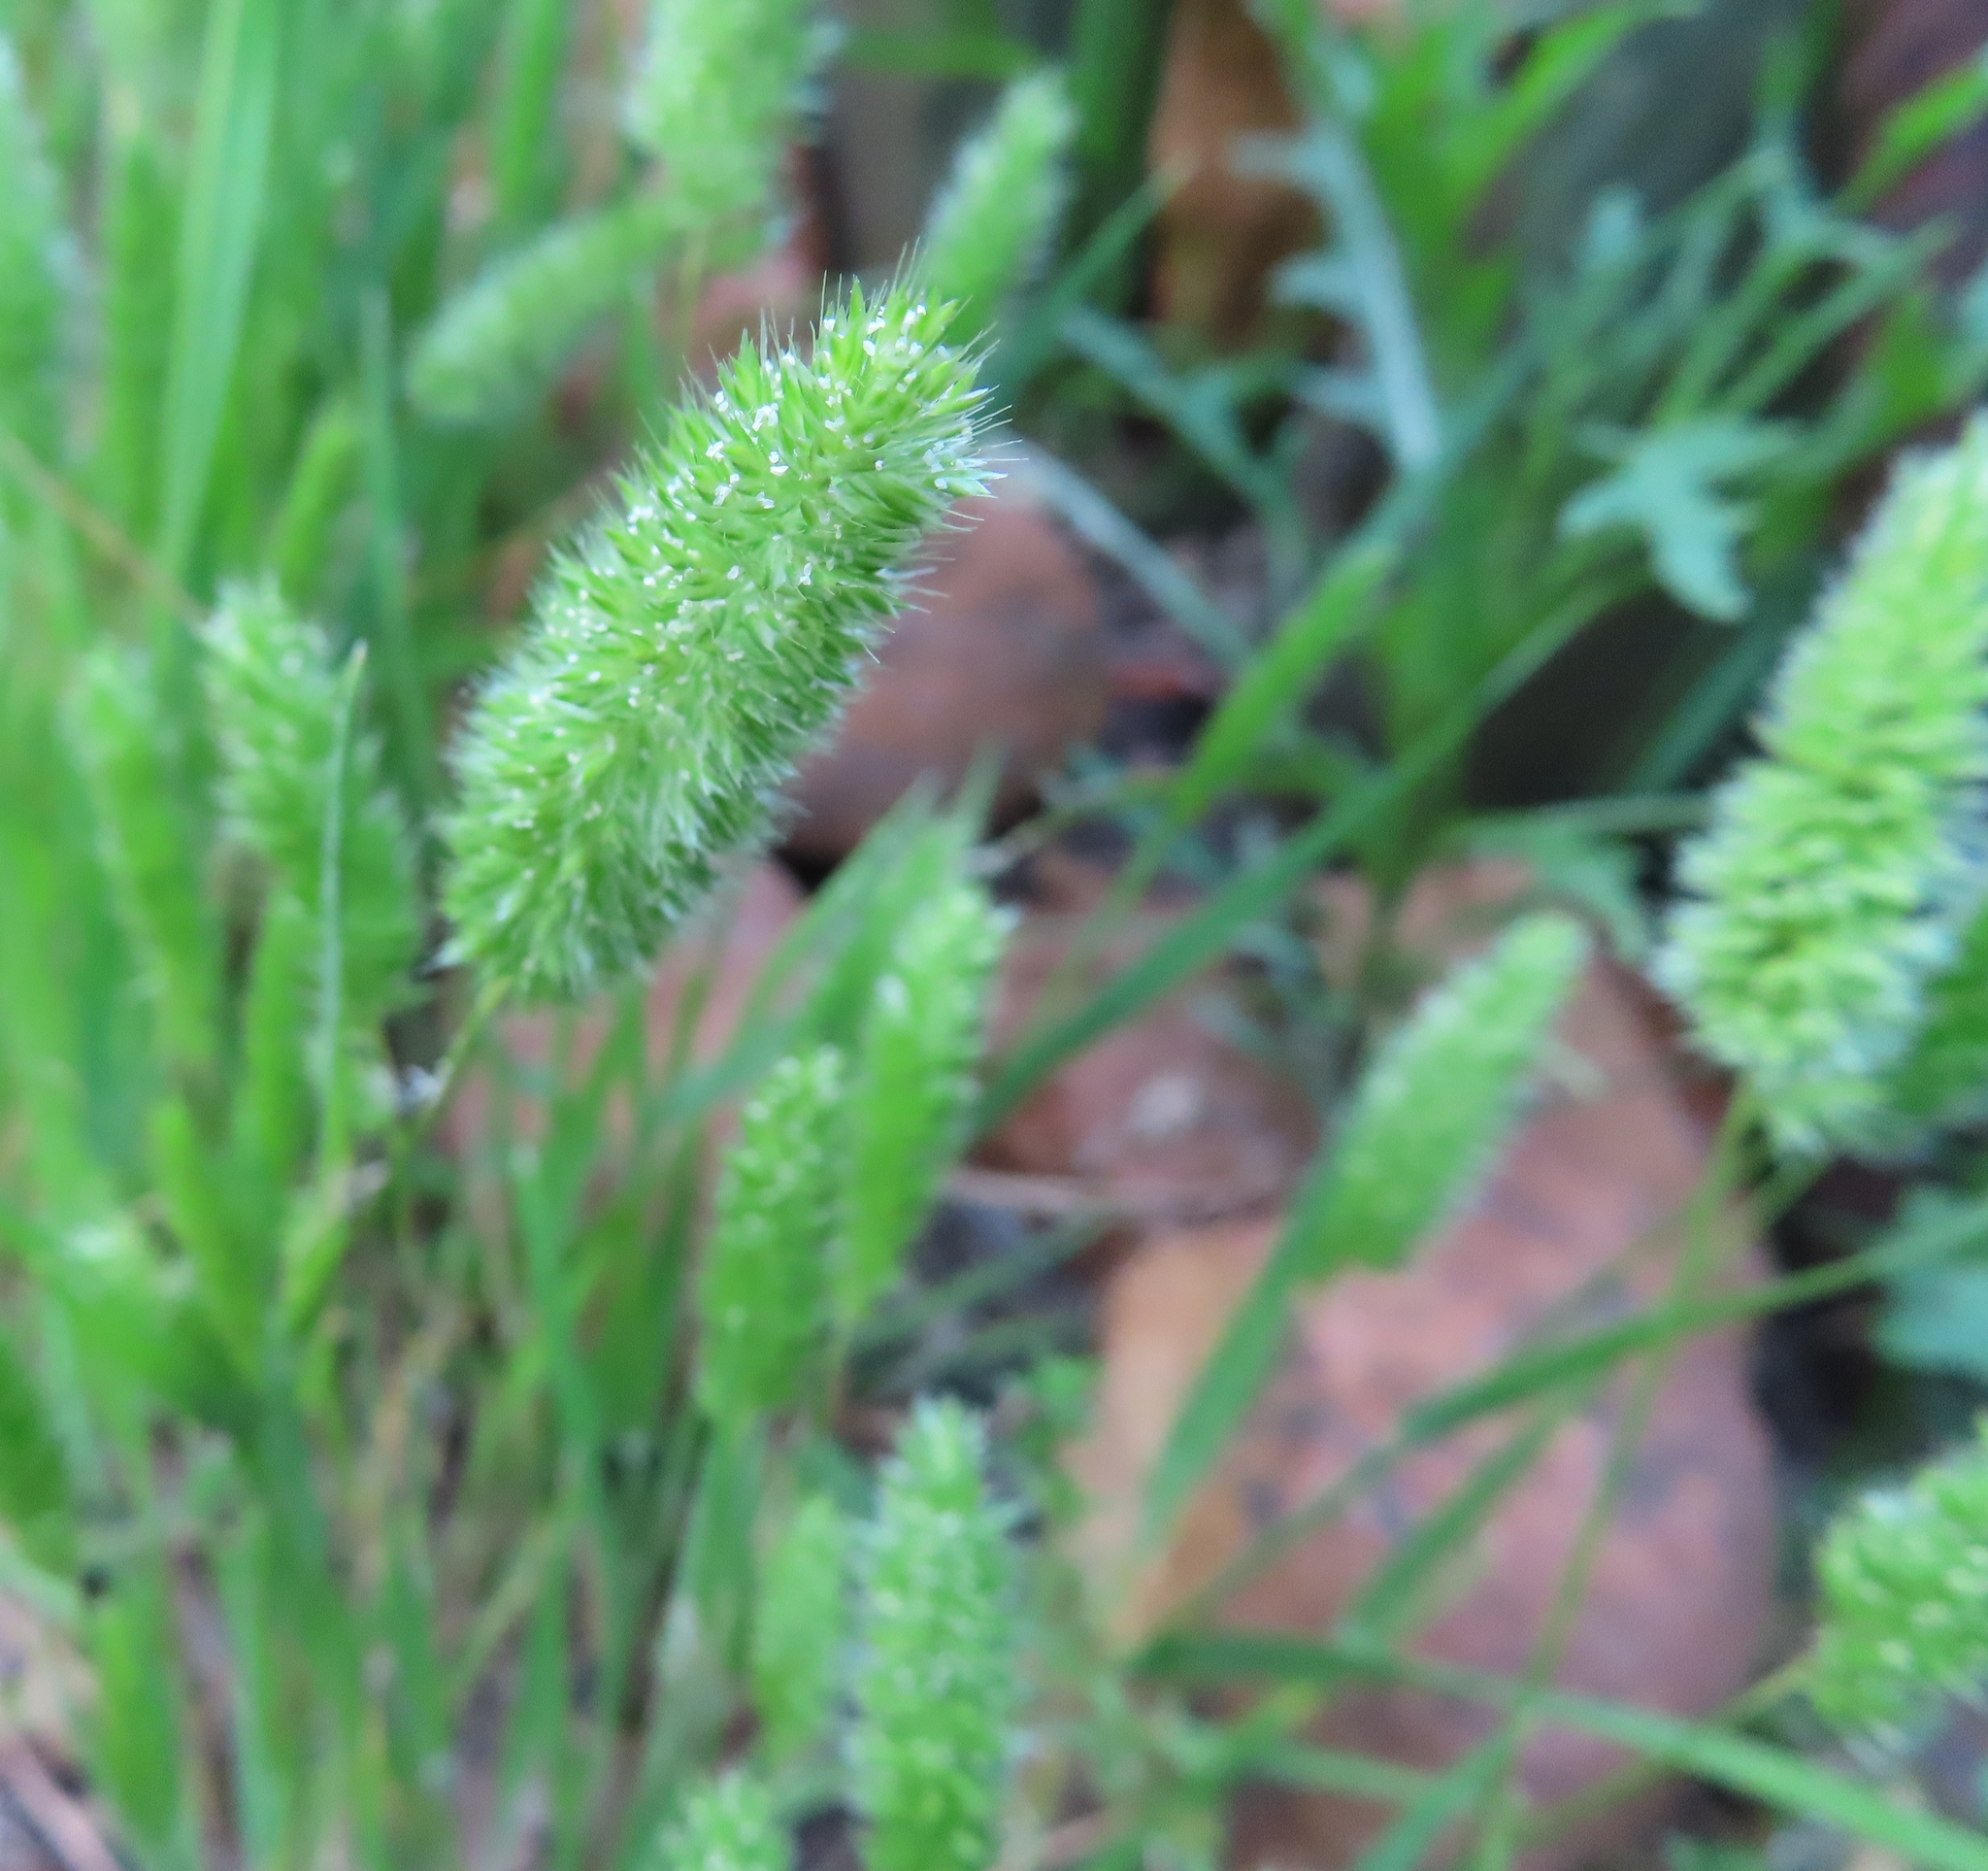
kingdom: Plantae
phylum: Tracheophyta
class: Liliopsida
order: Poales
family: Poaceae
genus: Rostraria
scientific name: Rostraria cristata
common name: Mediterranean hair-grass
